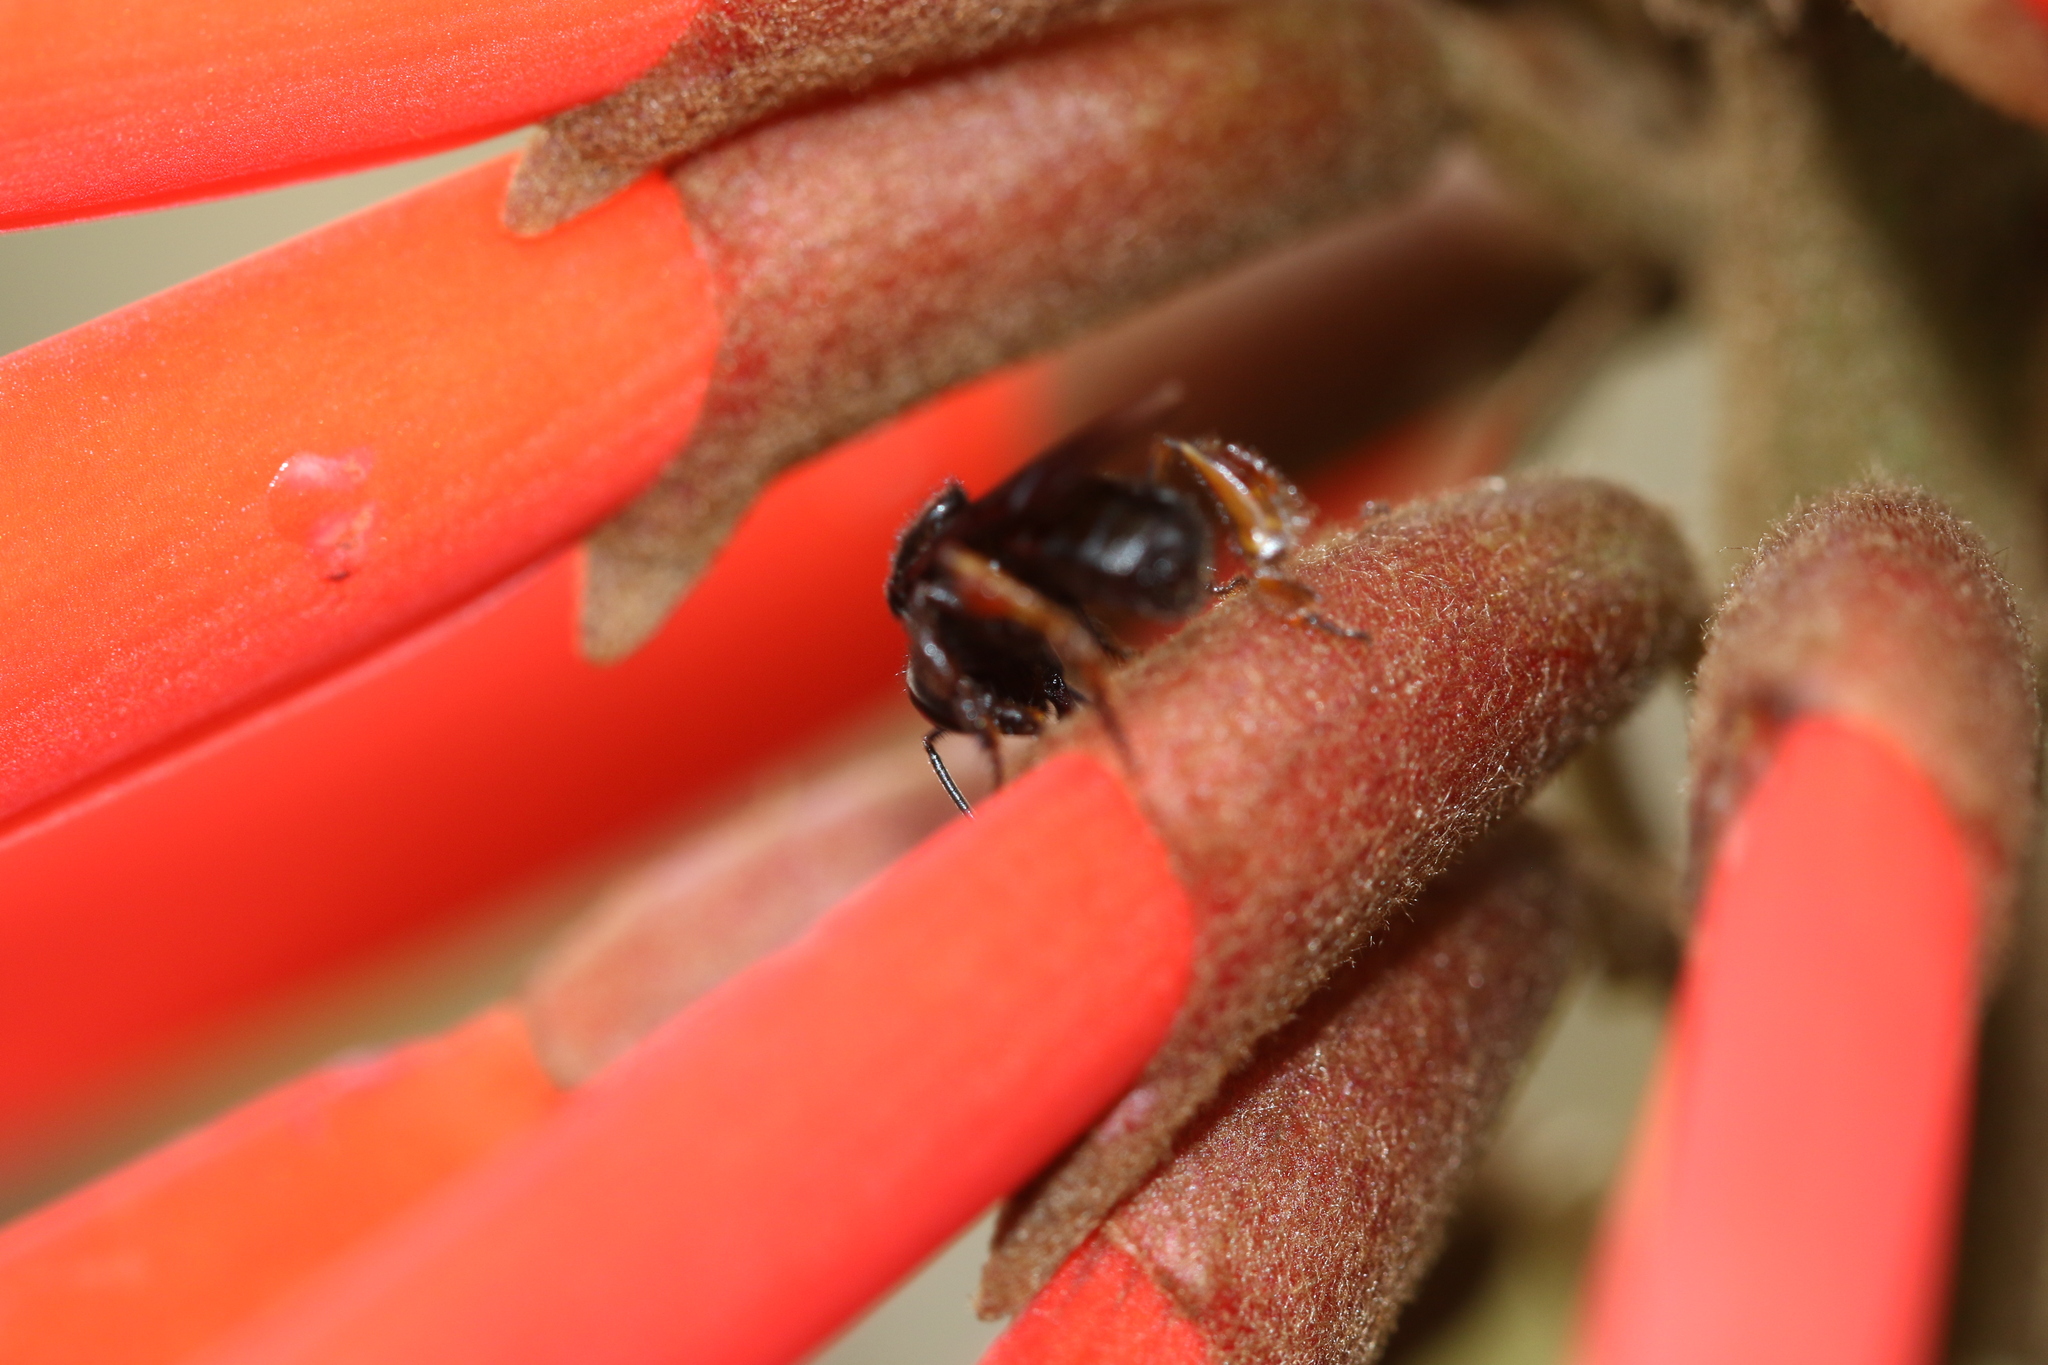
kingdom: Animalia
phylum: Arthropoda
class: Insecta
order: Hymenoptera
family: Apidae
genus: Trigona
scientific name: Trigona spinipes
